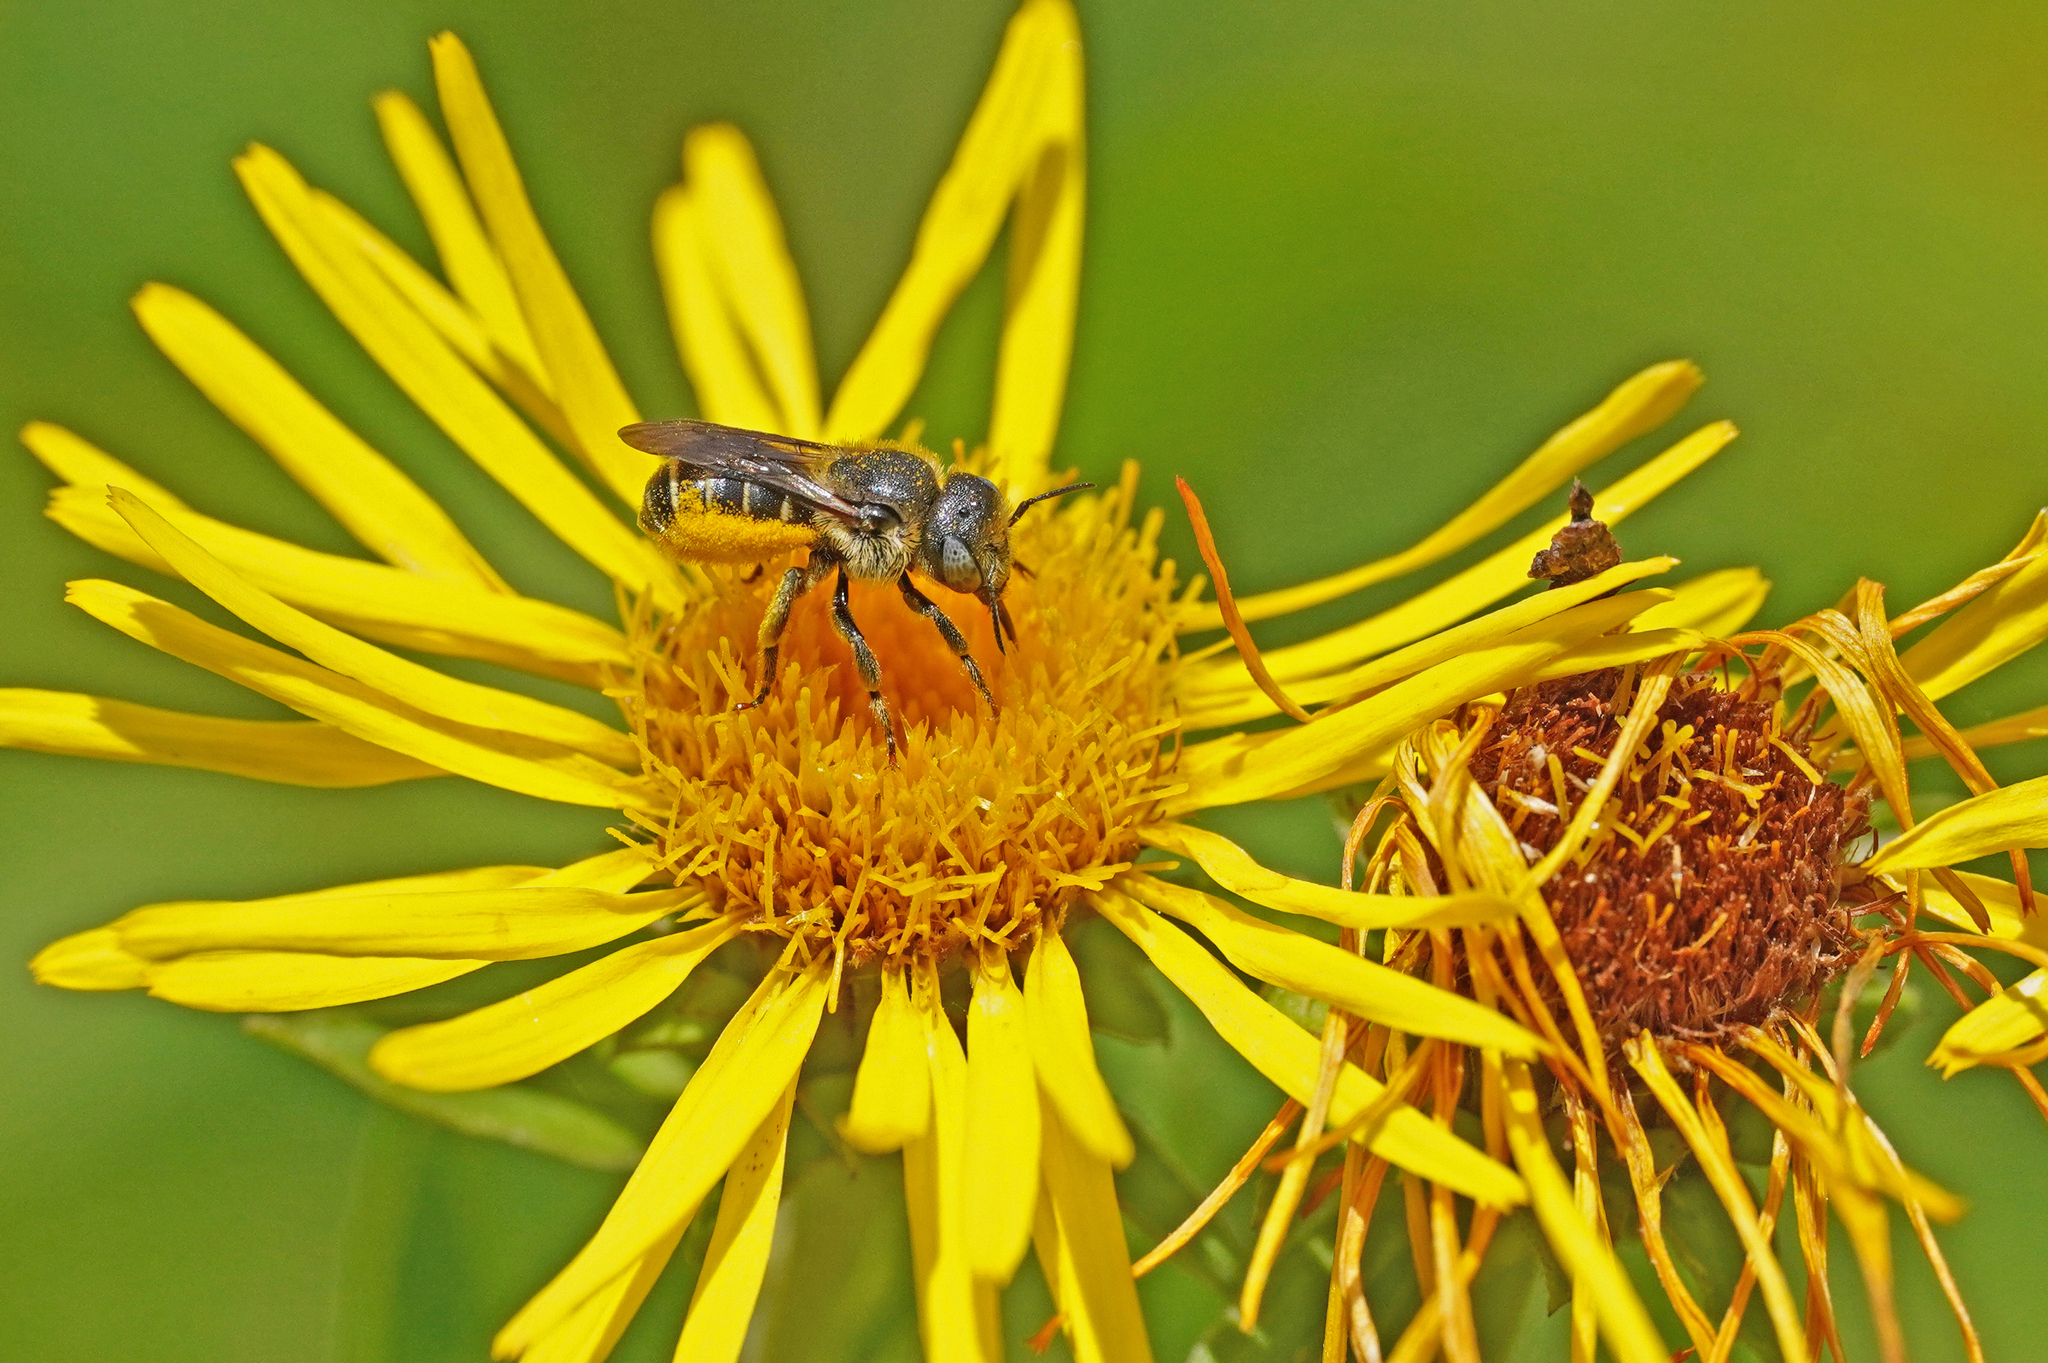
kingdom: Animalia
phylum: Arthropoda
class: Insecta
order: Hymenoptera
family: Megachilidae
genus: Osmia
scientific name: Osmia spinulosa
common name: Spined mason bee
